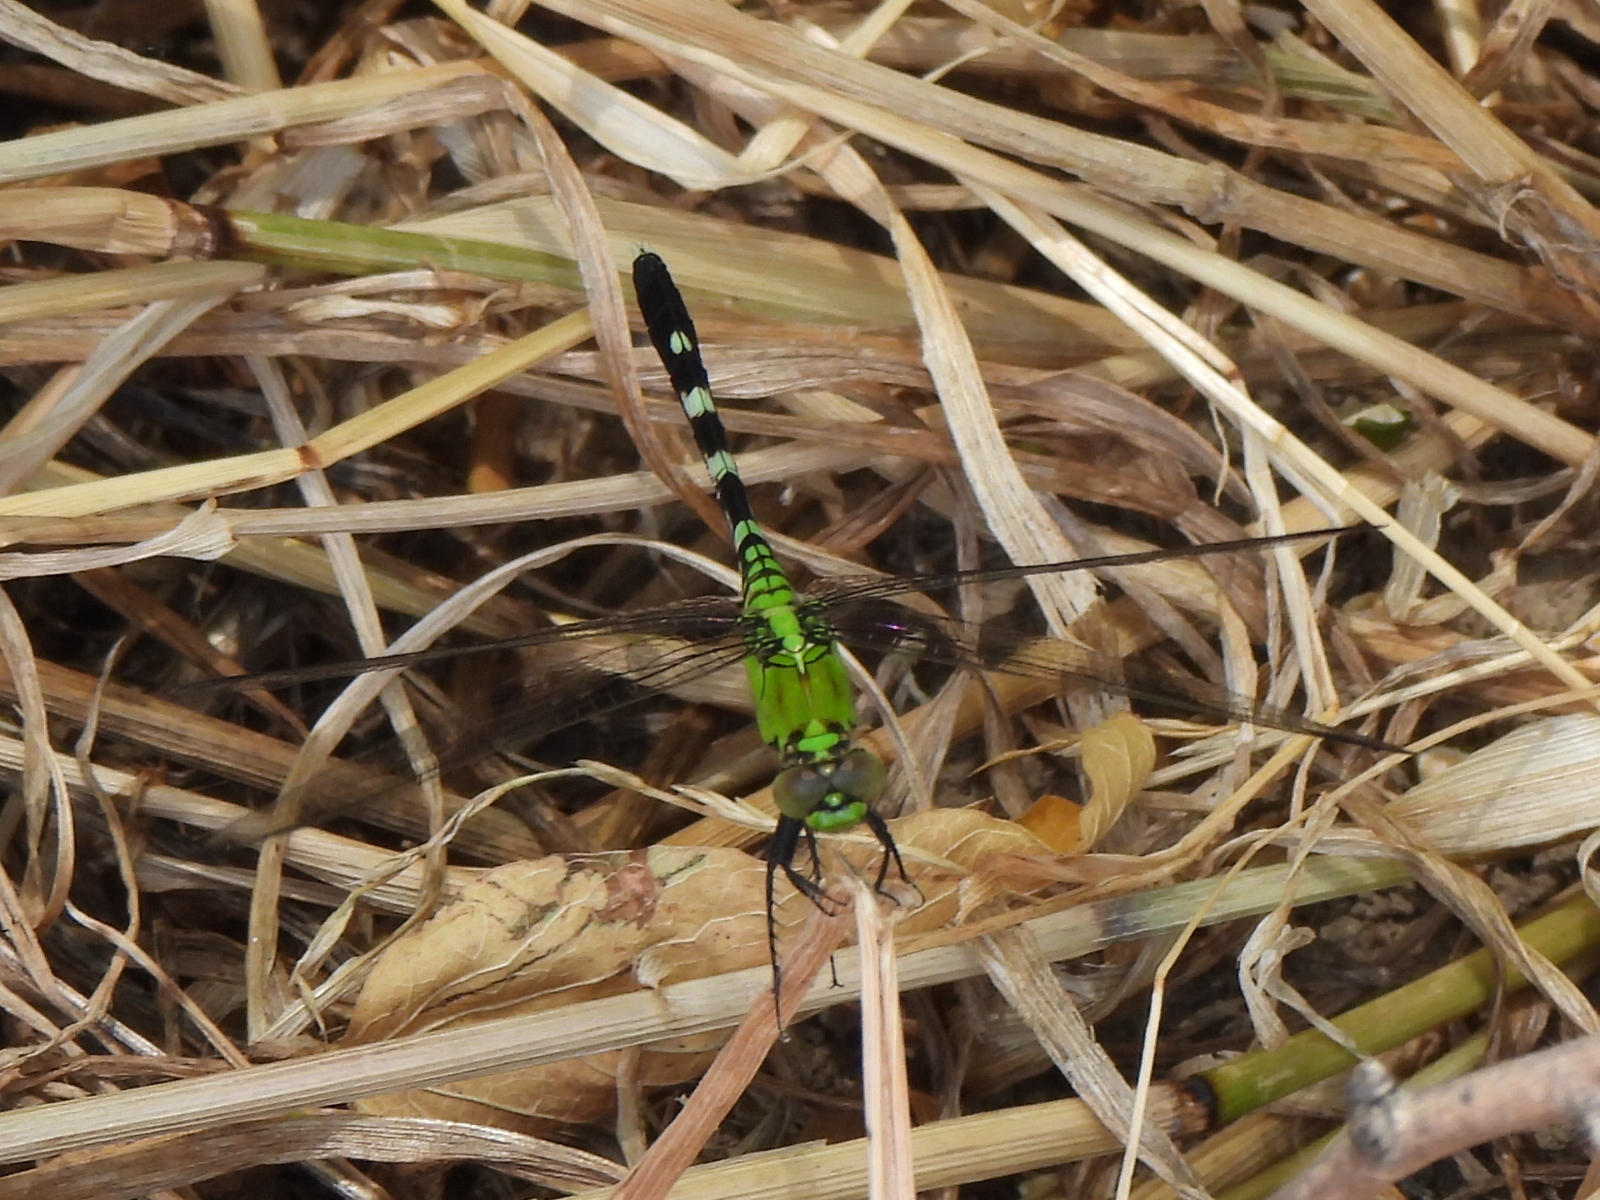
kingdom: Animalia
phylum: Arthropoda
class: Insecta
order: Odonata
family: Libellulidae
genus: Erythemis
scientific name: Erythemis simplicicollis
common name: Eastern pondhawk
